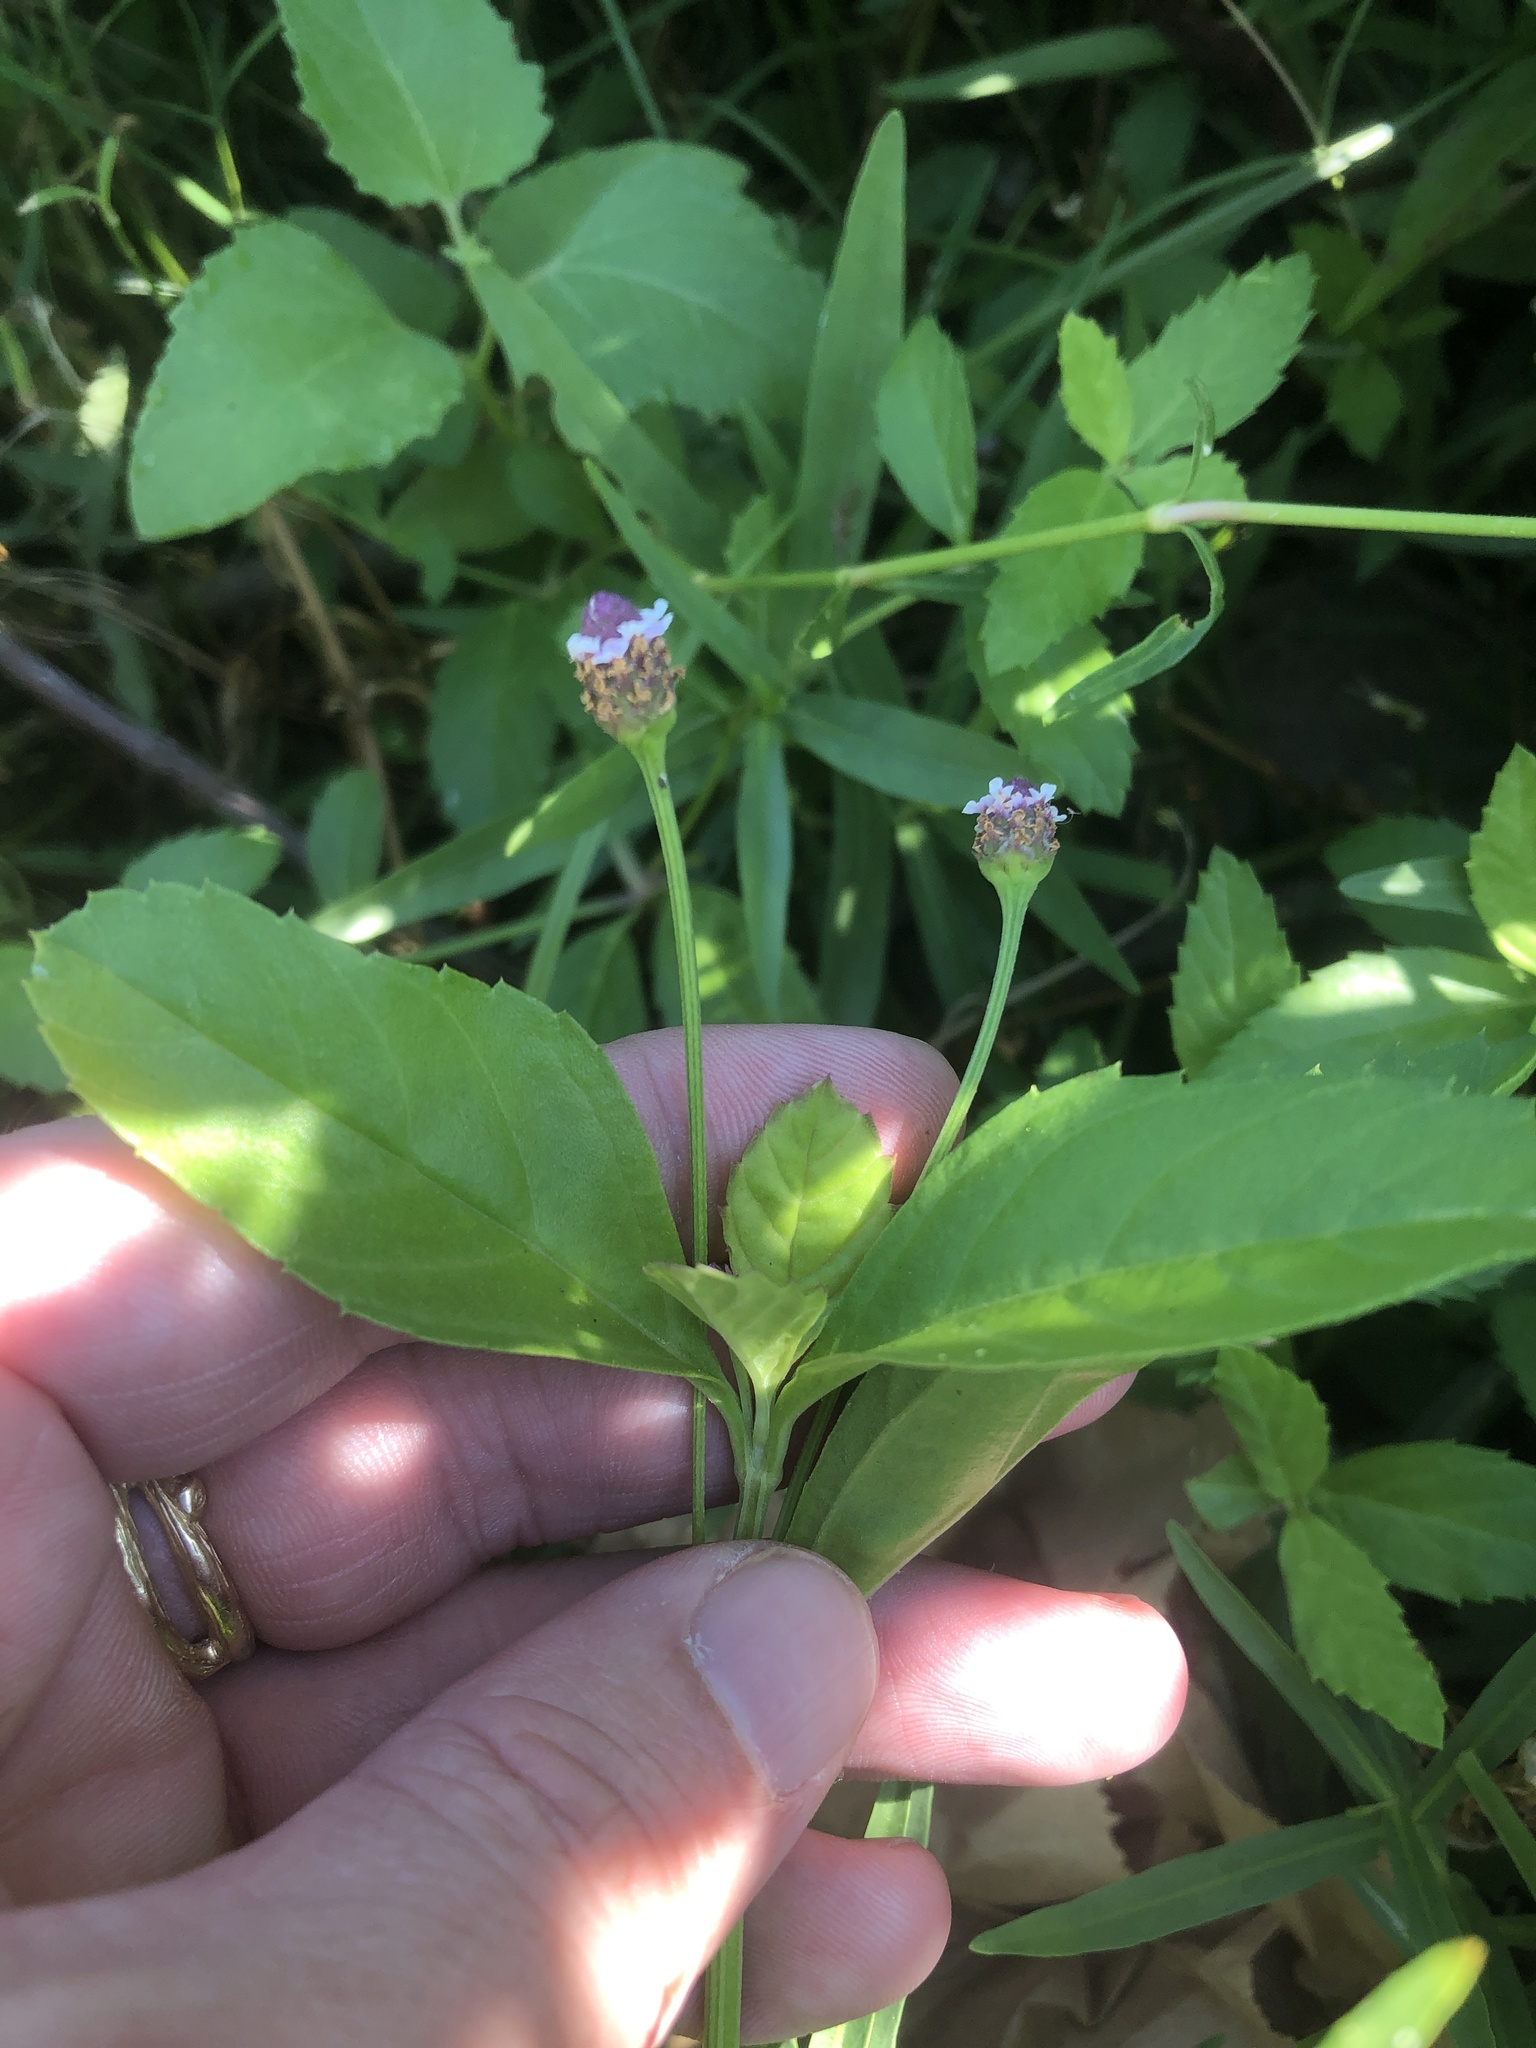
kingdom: Plantae
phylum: Tracheophyta
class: Magnoliopsida
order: Lamiales
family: Verbenaceae
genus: Phyla
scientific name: Phyla lanceolata
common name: Northern fogfruit
